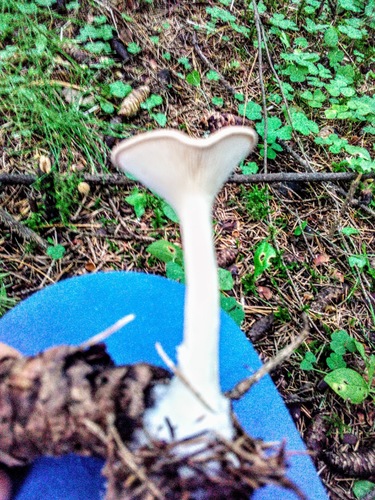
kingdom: Fungi
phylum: Basidiomycota
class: Agaricomycetes
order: Agaricales
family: Tricholomataceae
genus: Infundibulicybe
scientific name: Infundibulicybe gibba
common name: Common funnel
